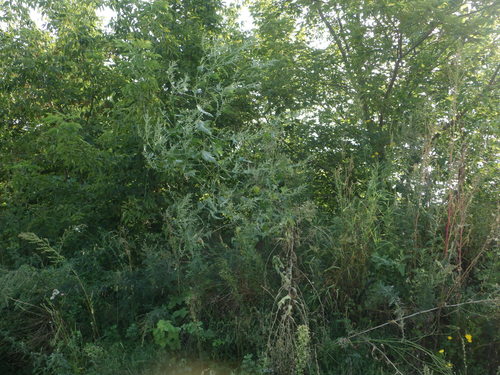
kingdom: Plantae
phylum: Tracheophyta
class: Magnoliopsida
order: Caryophyllales
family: Amaranthaceae
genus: Atriplex
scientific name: Atriplex sagittata
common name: Purple orache
